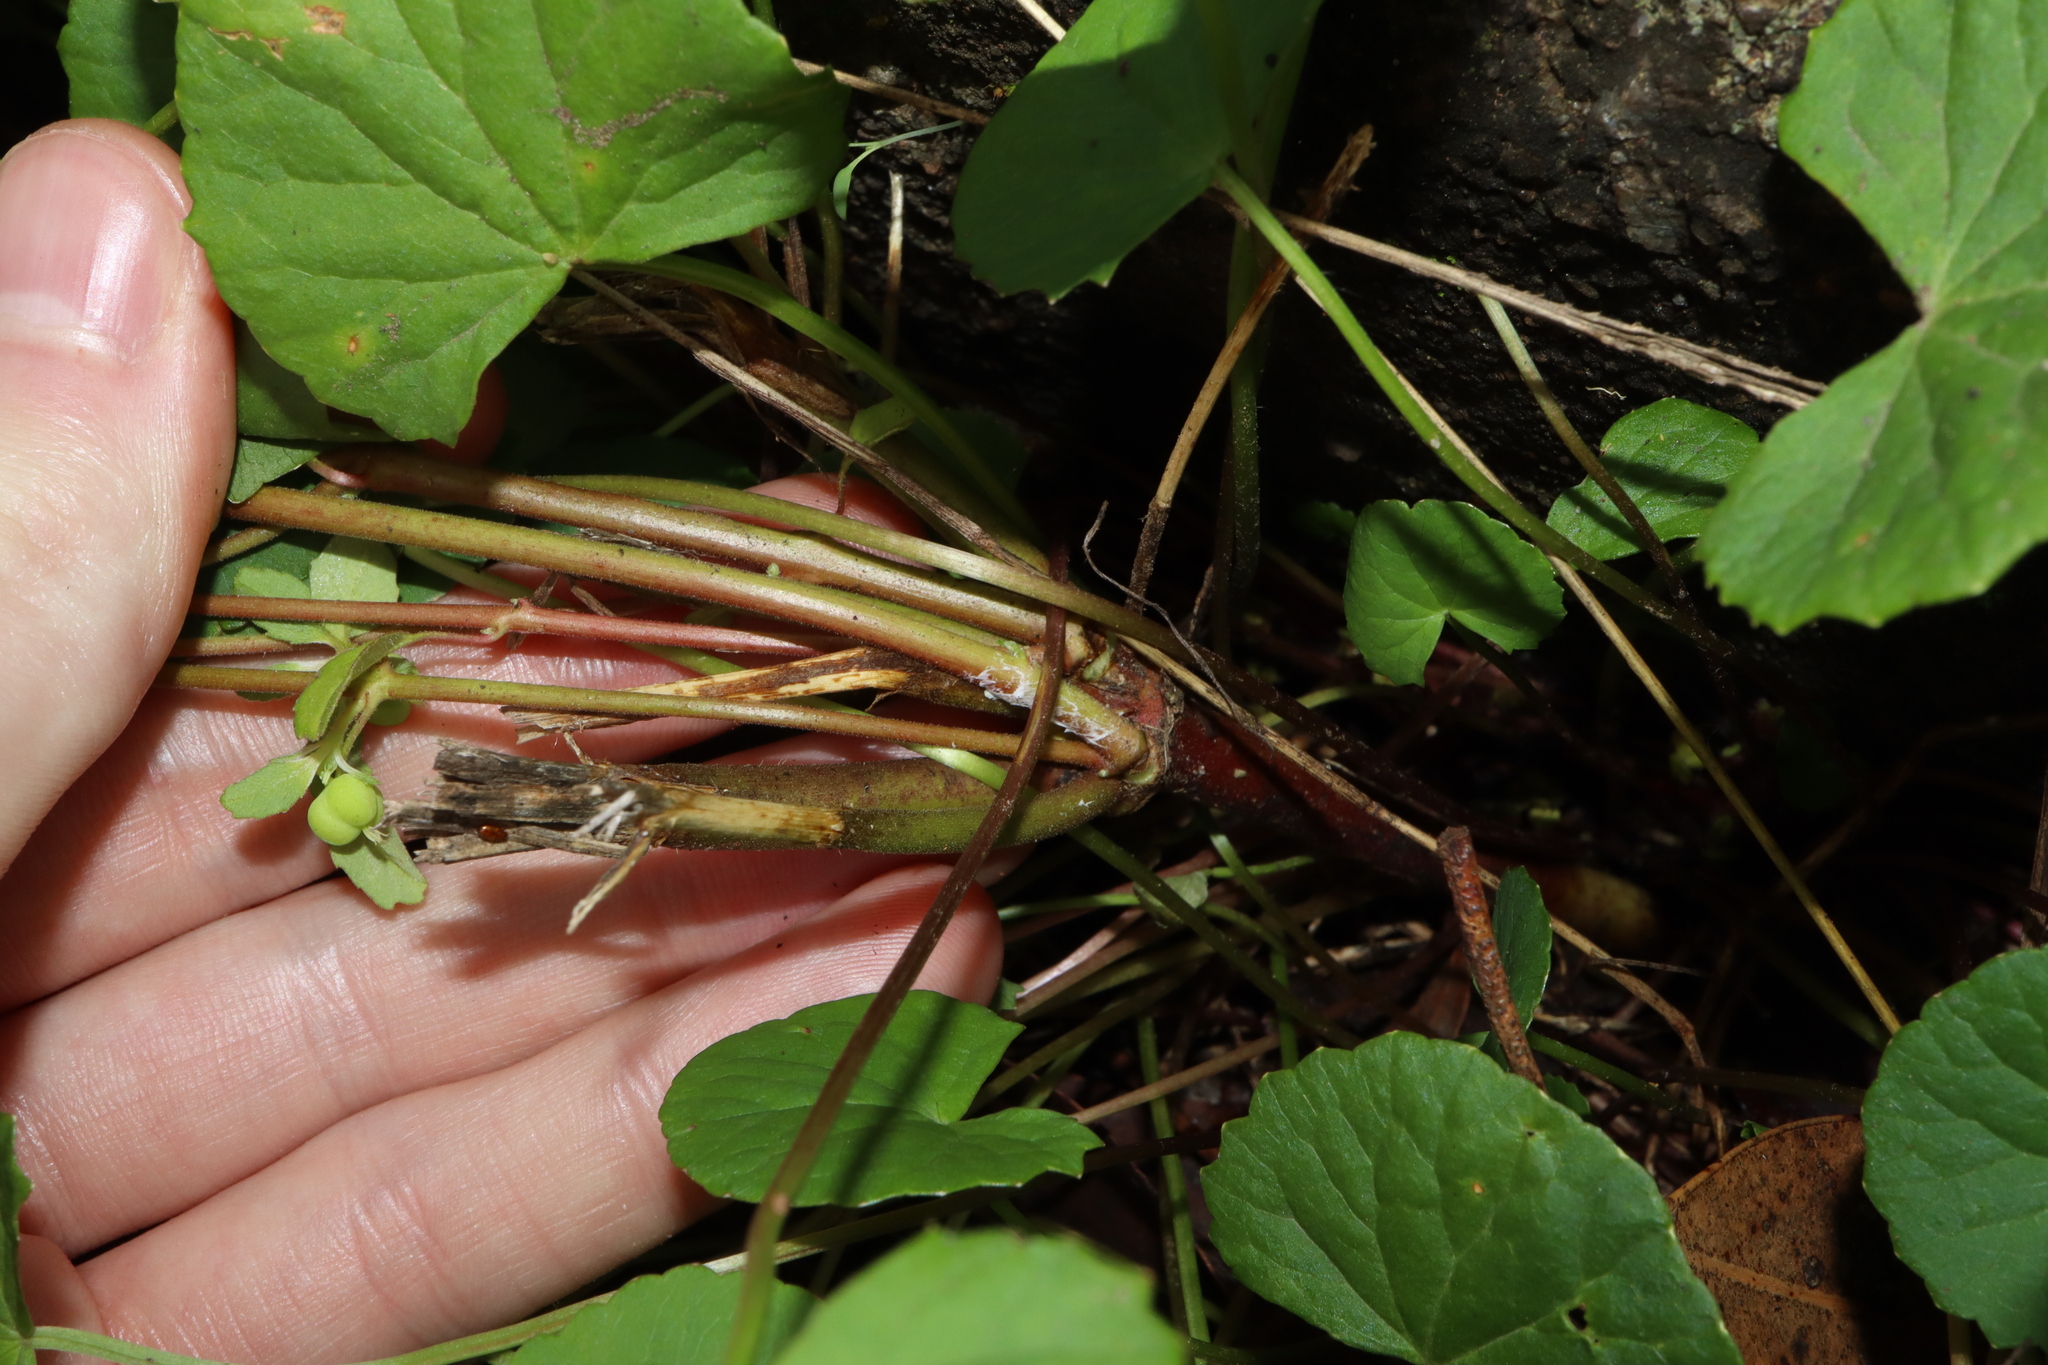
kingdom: Plantae
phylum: Tracheophyta
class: Magnoliopsida
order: Malpighiales
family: Euphorbiaceae
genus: Euphorbia
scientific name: Euphorbia davidii
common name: David's spurge
